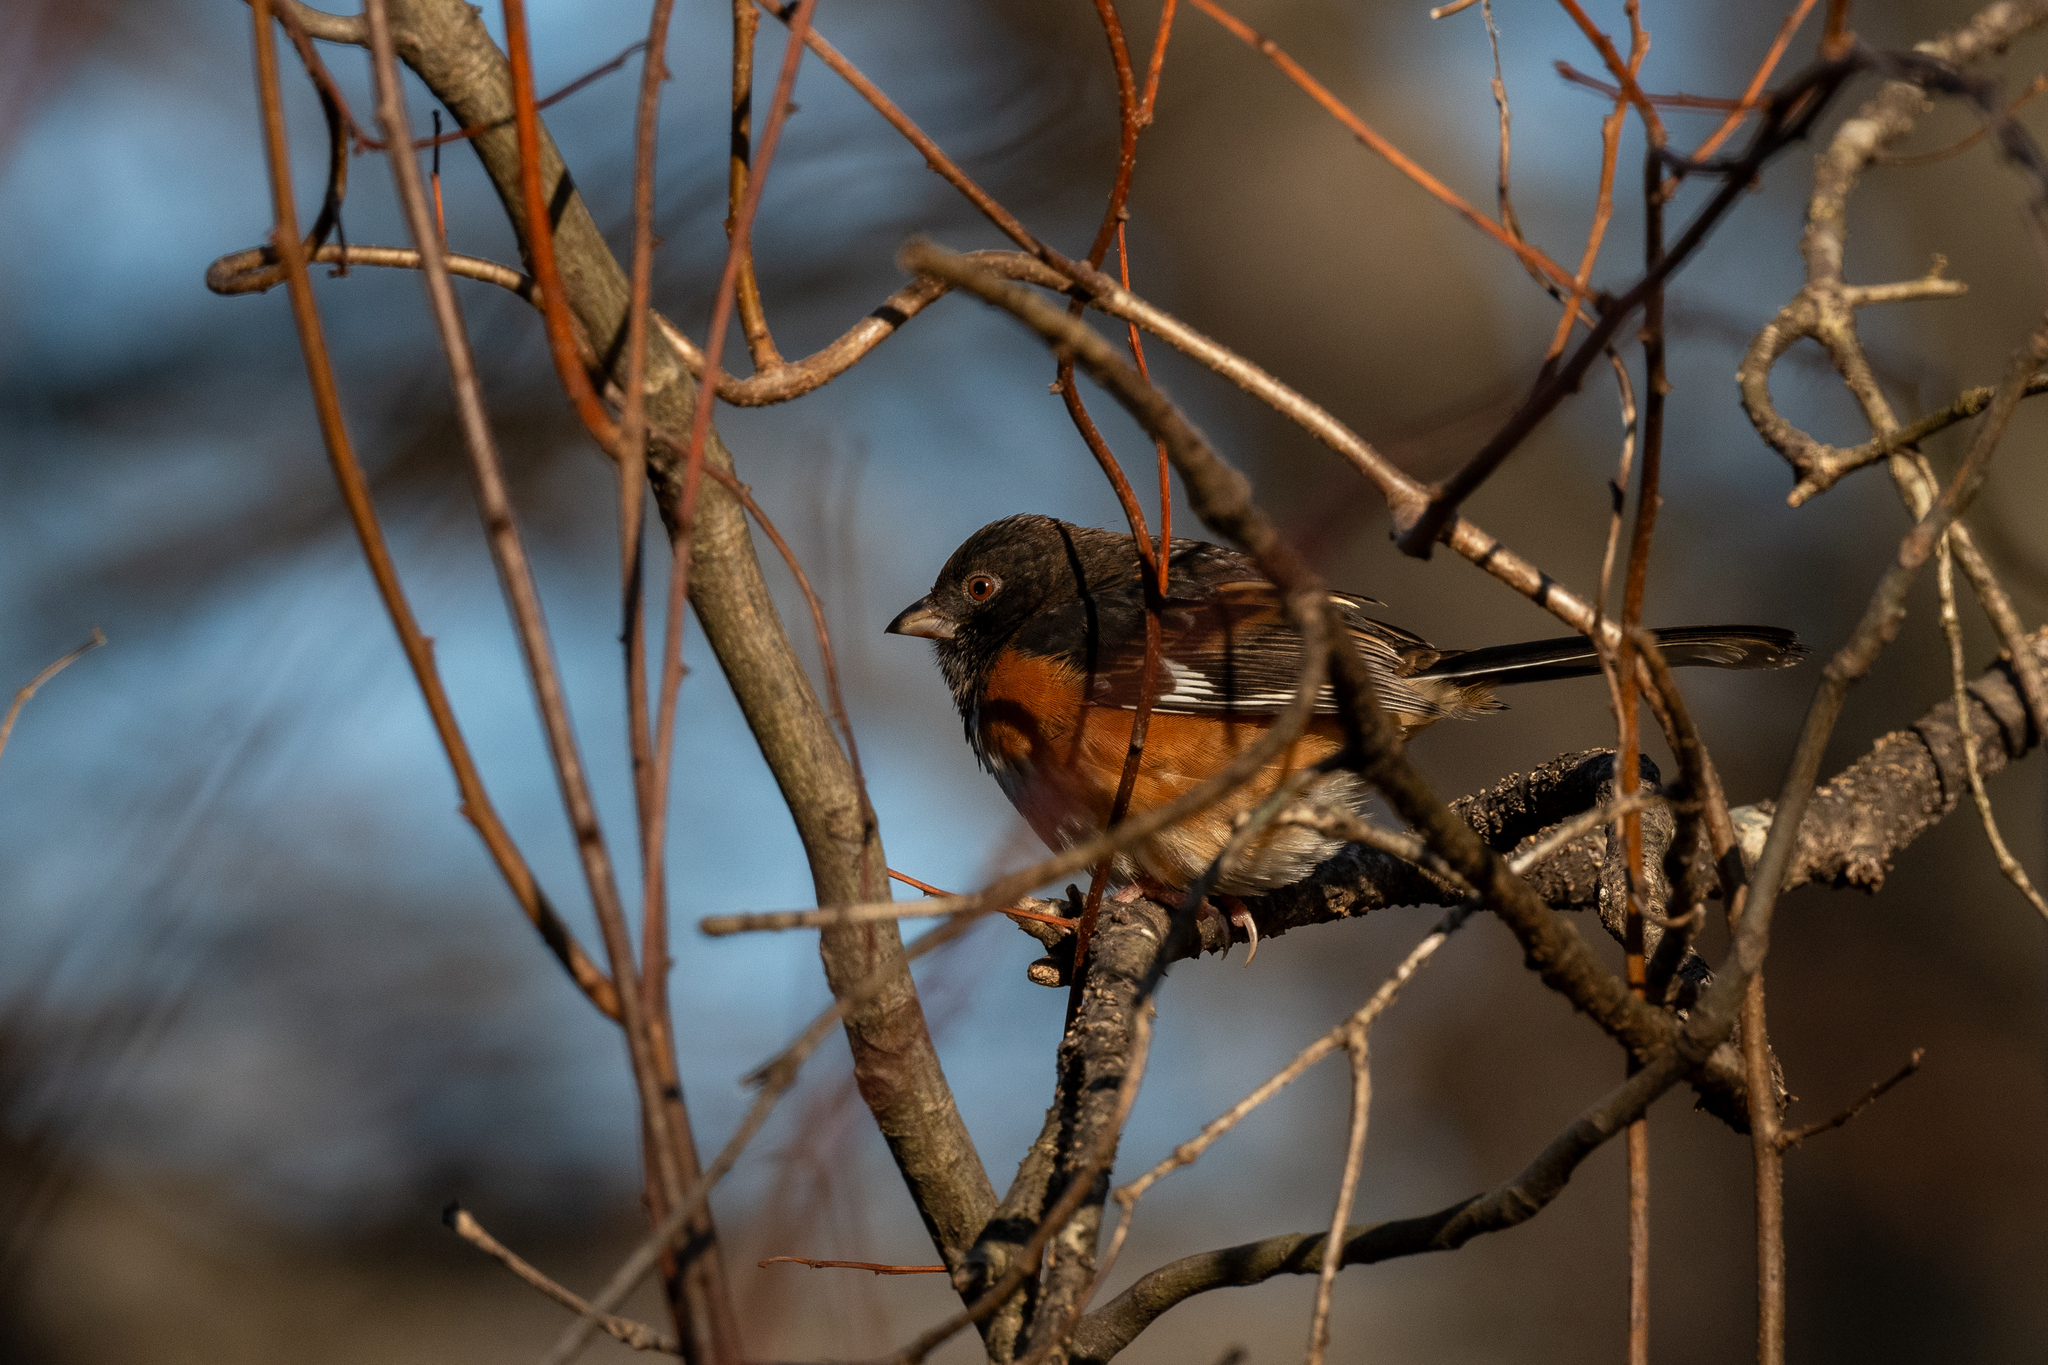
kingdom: Animalia
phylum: Chordata
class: Aves
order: Passeriformes
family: Passerellidae
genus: Pipilo
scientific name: Pipilo erythrophthalmus
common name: Eastern towhee
